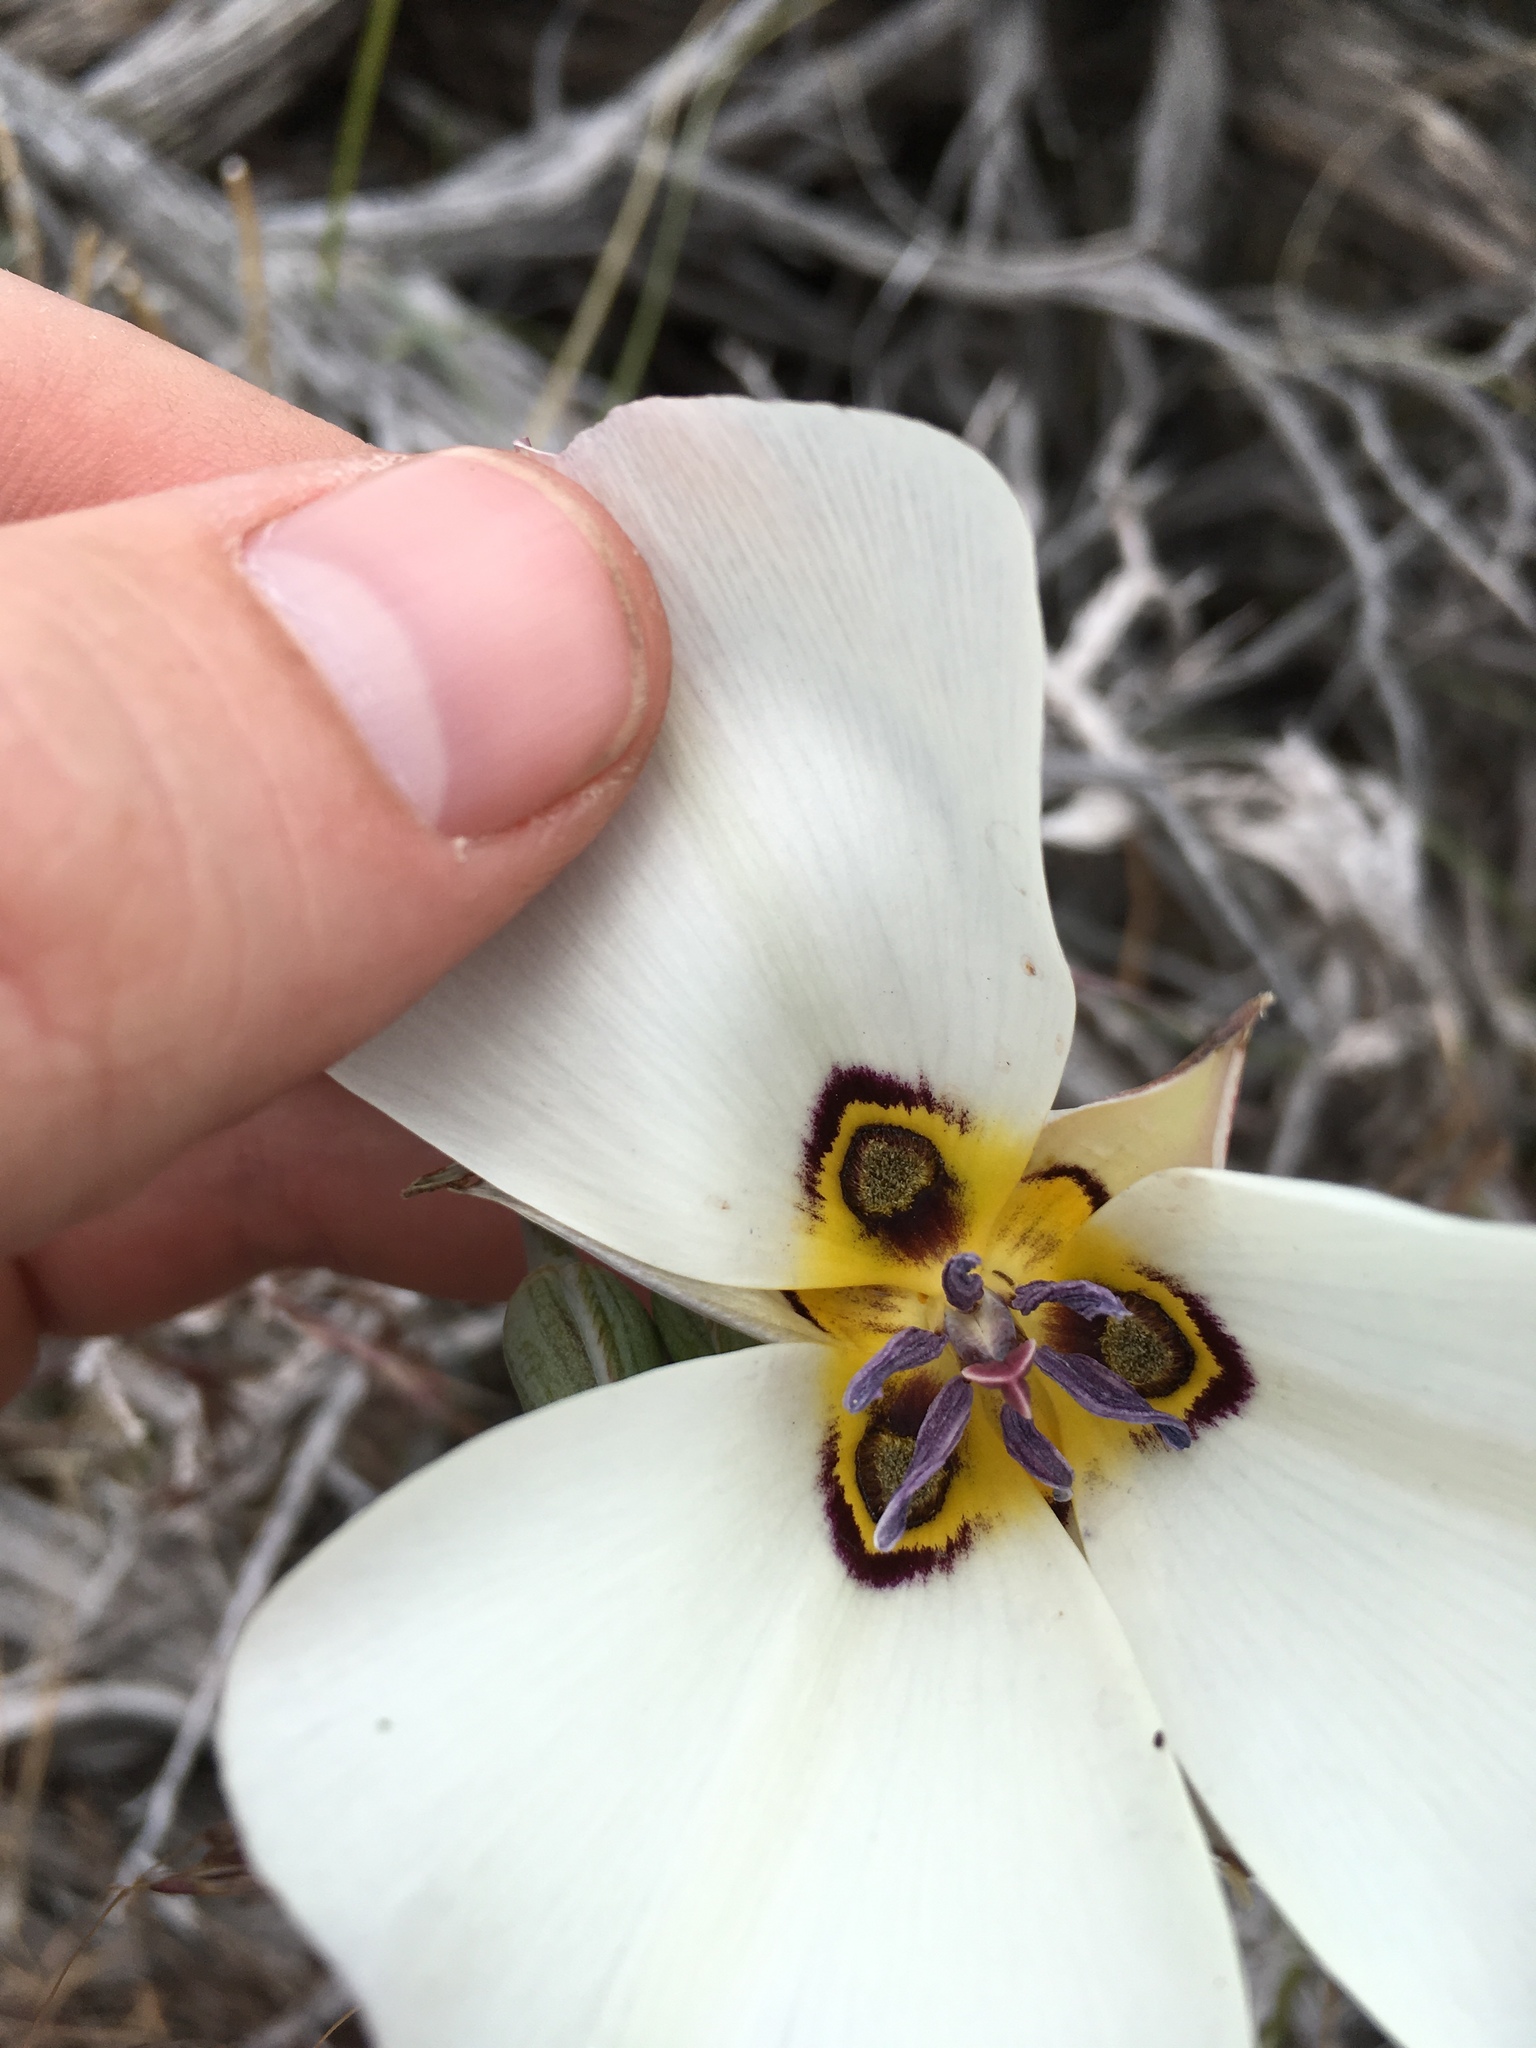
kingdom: Plantae
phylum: Tracheophyta
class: Liliopsida
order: Liliales
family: Liliaceae
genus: Calochortus
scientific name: Calochortus bruneaunis
